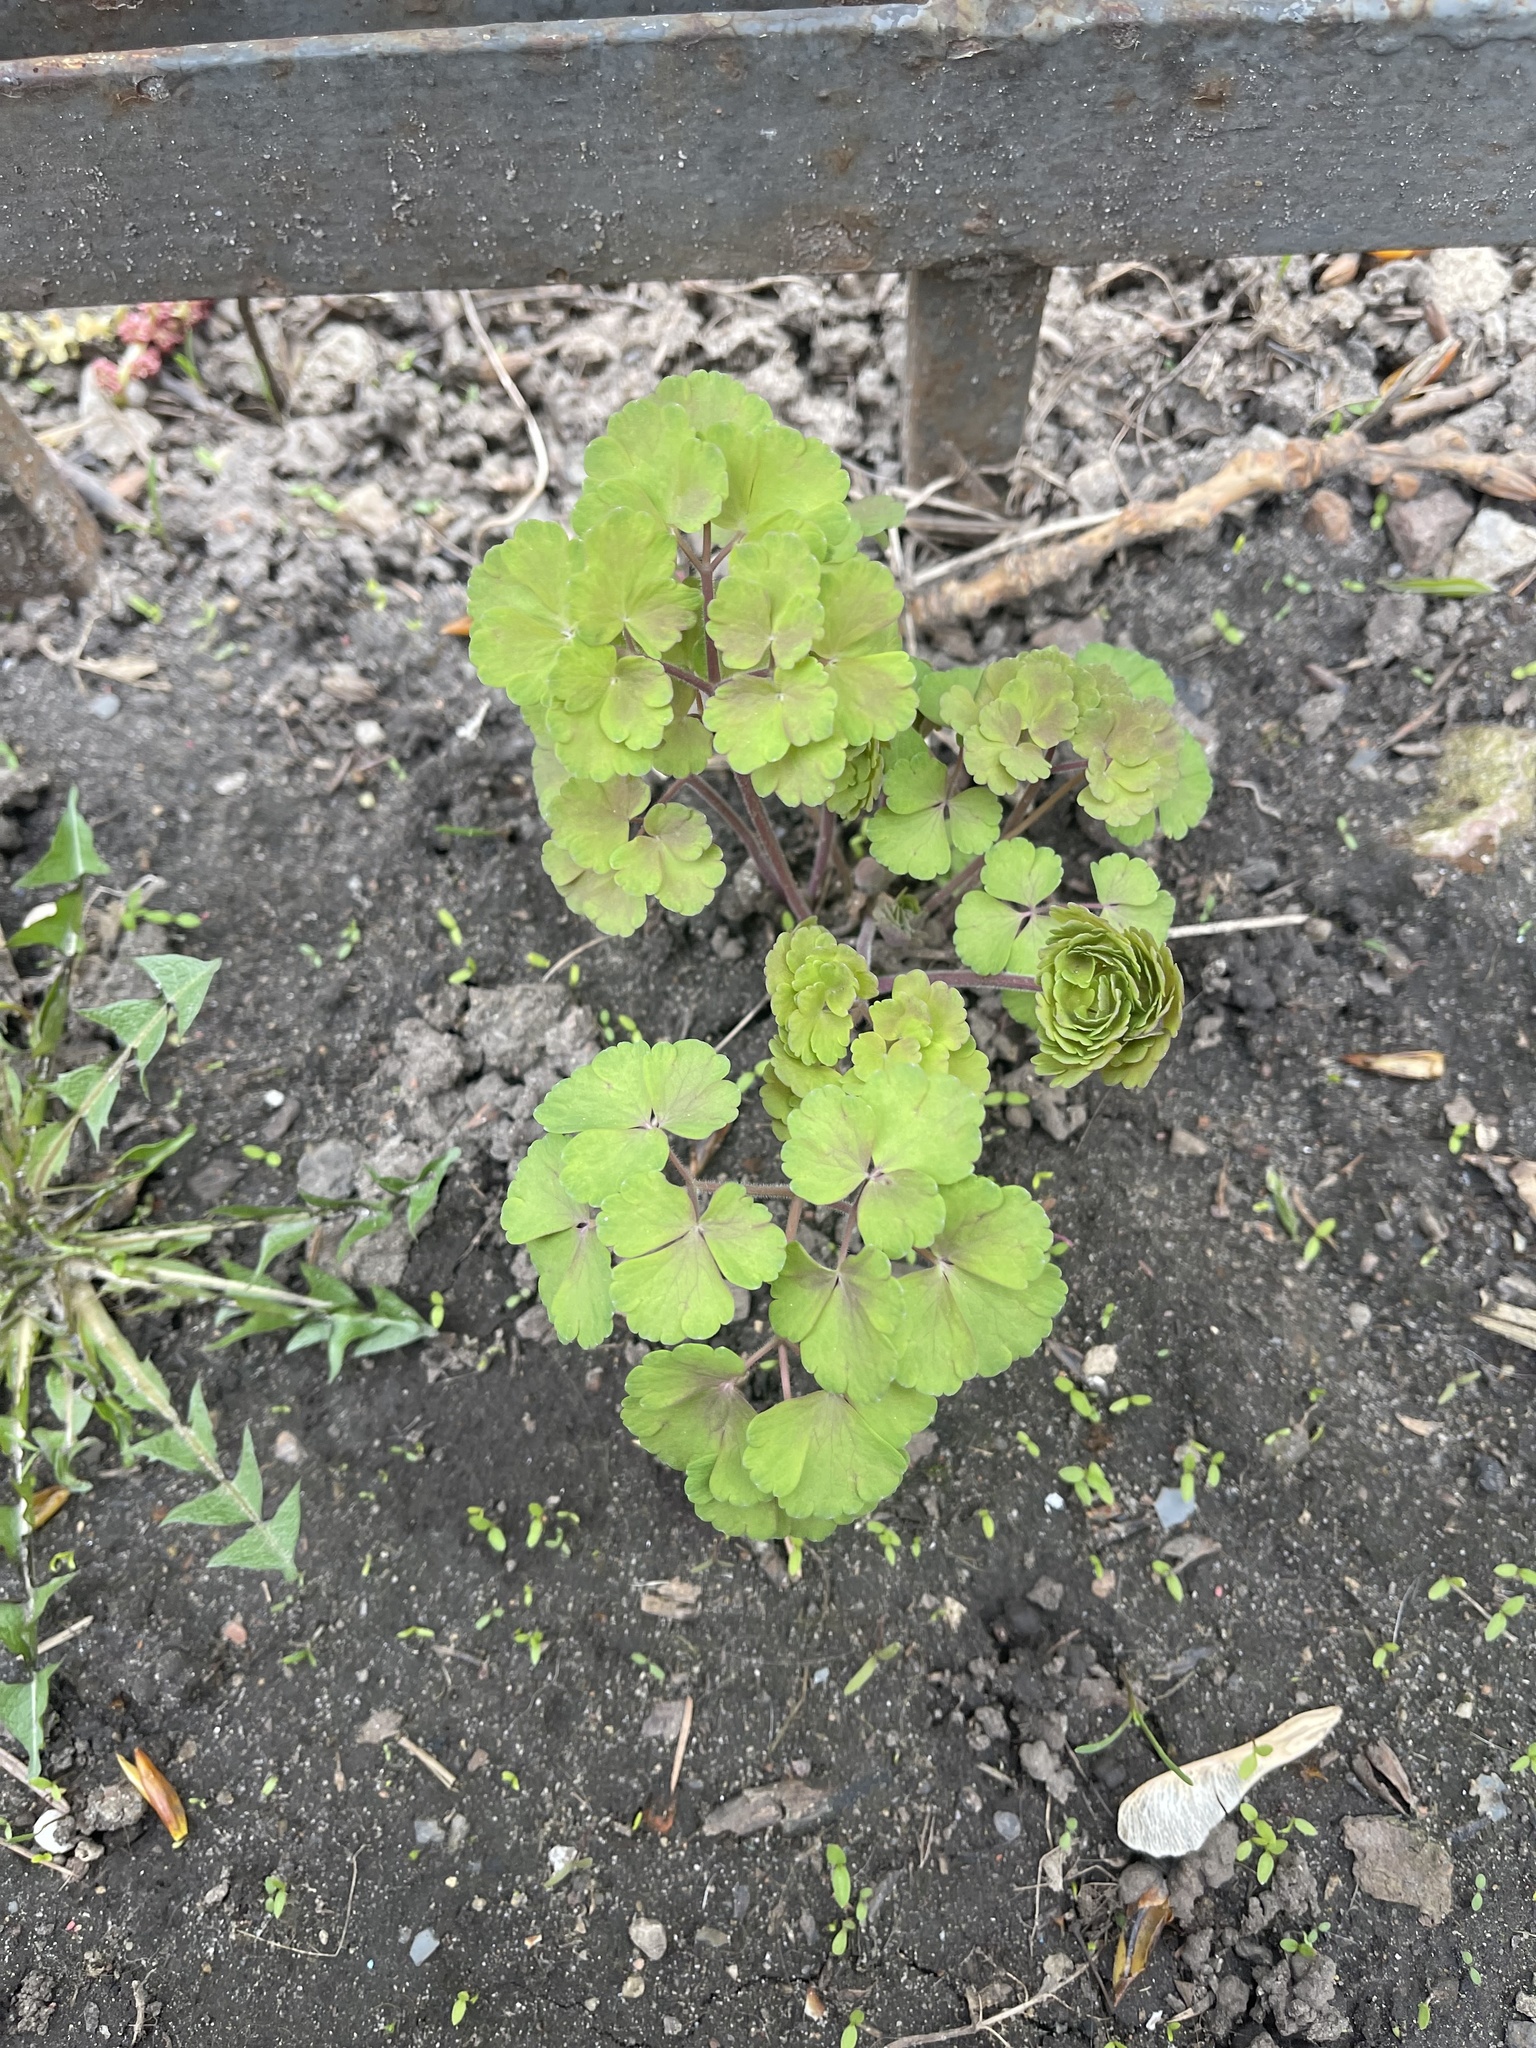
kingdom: Plantae
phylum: Tracheophyta
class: Magnoliopsida
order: Ranunculales
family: Ranunculaceae
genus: Aquilegia
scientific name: Aquilegia vulgaris
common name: Columbine
